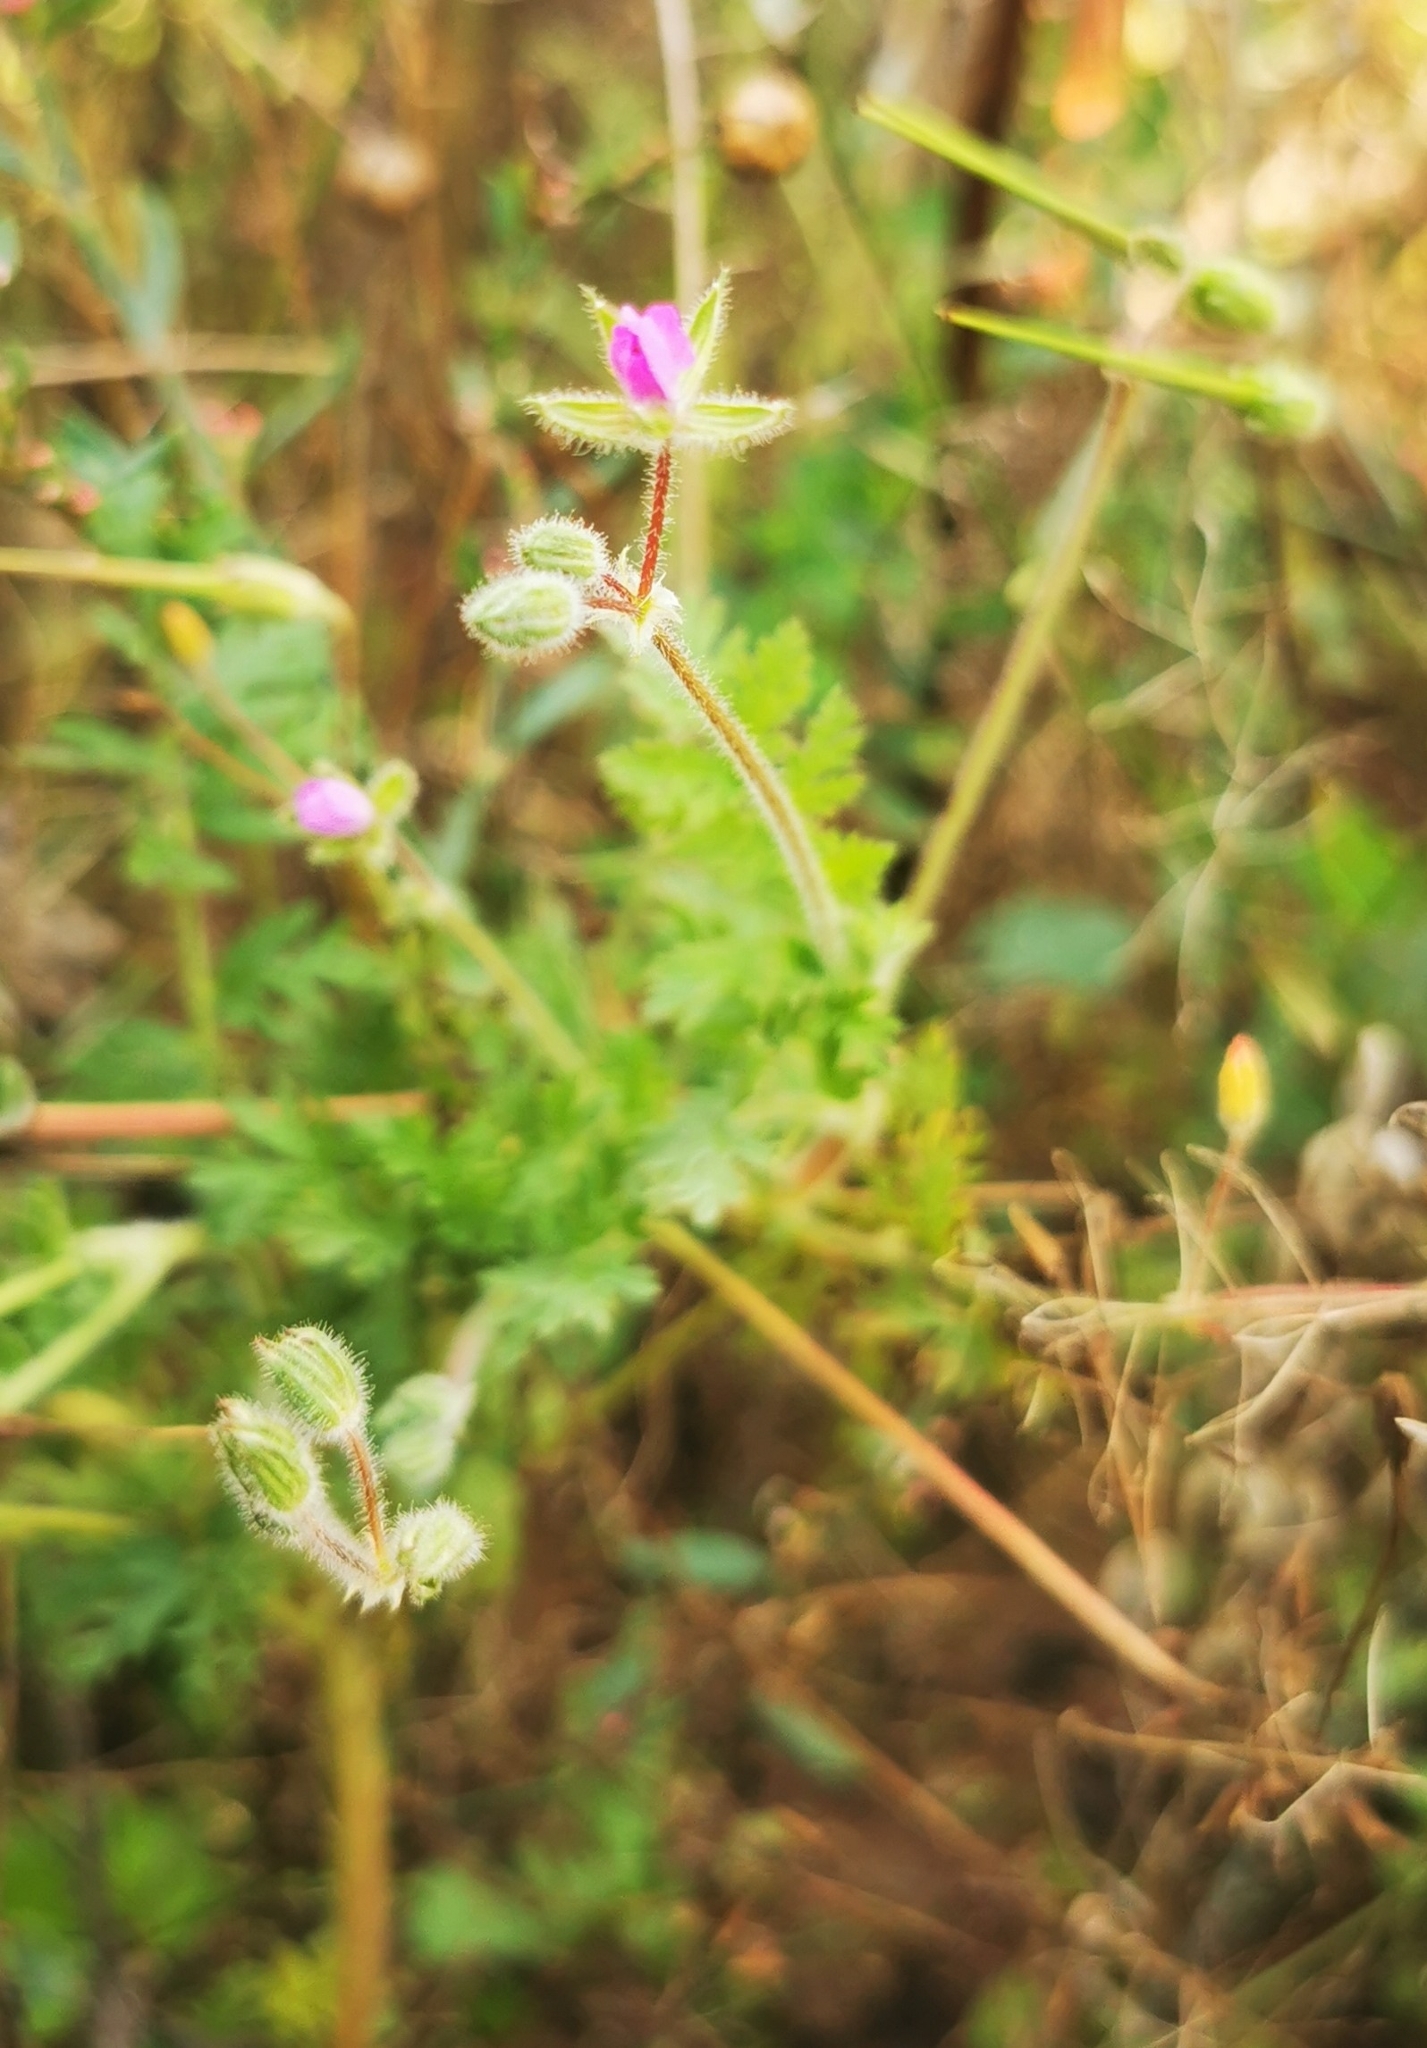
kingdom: Plantae
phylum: Tracheophyta
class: Magnoliopsida
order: Geraniales
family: Geraniaceae
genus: Erodium
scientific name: Erodium cicutarium
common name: Common stork's-bill
